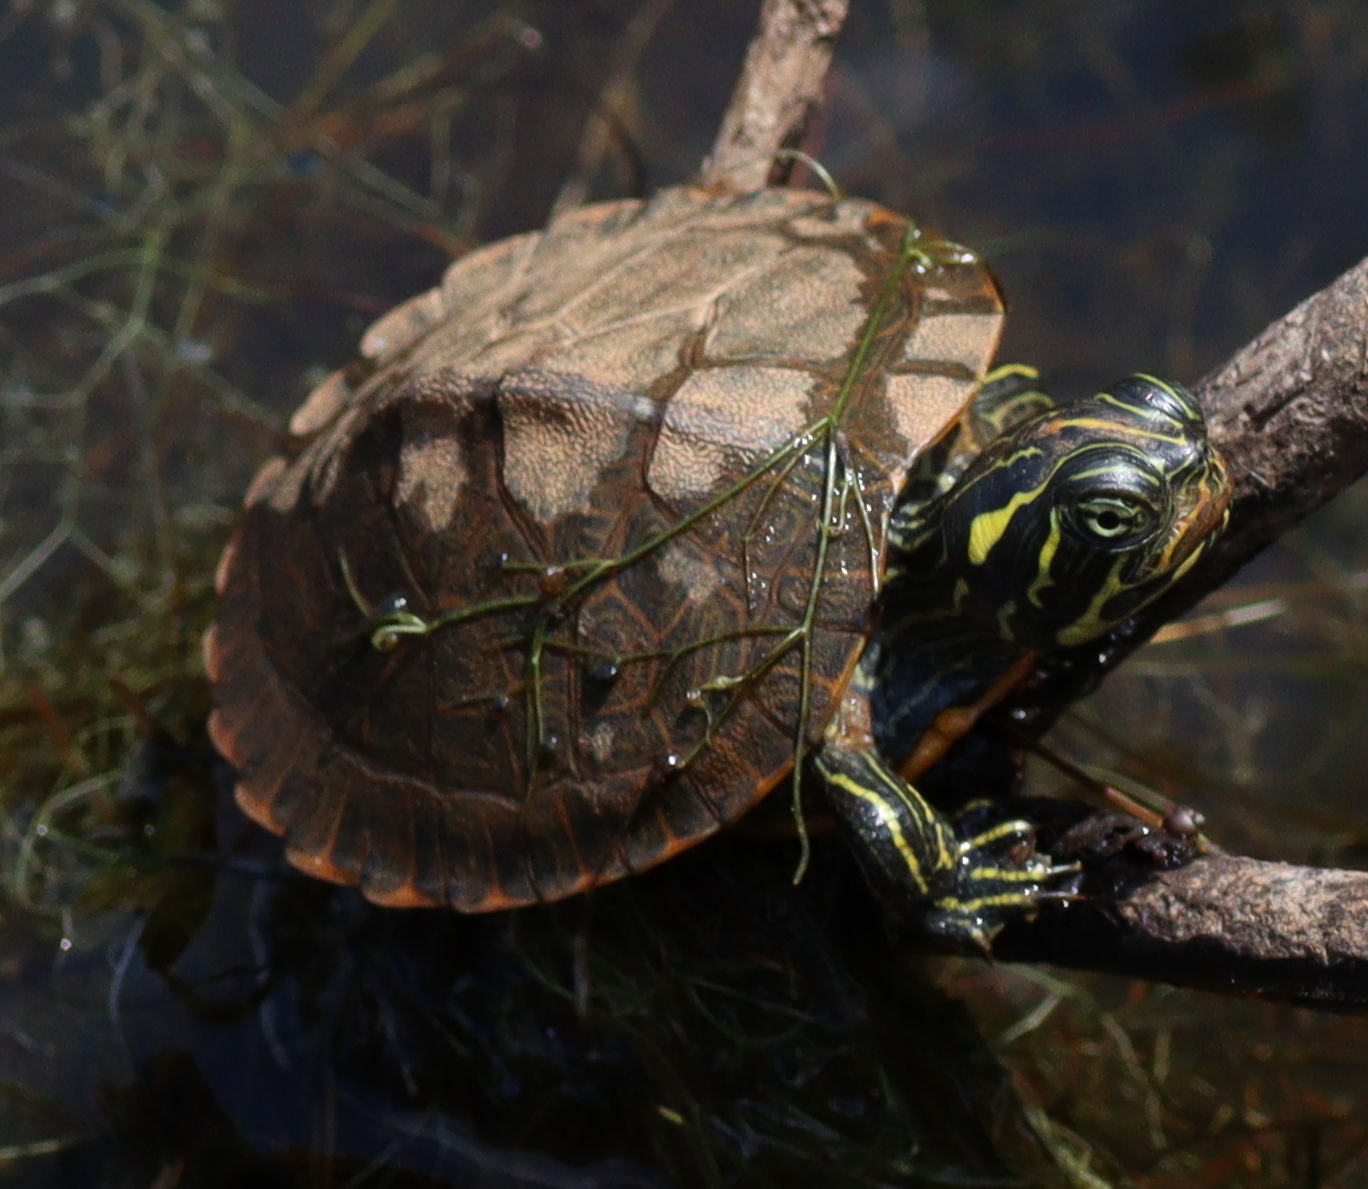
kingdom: Animalia
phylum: Chordata
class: Testudines
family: Emydidae
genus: Pseudemys
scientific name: Pseudemys concinna
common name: Eastern river cooter
